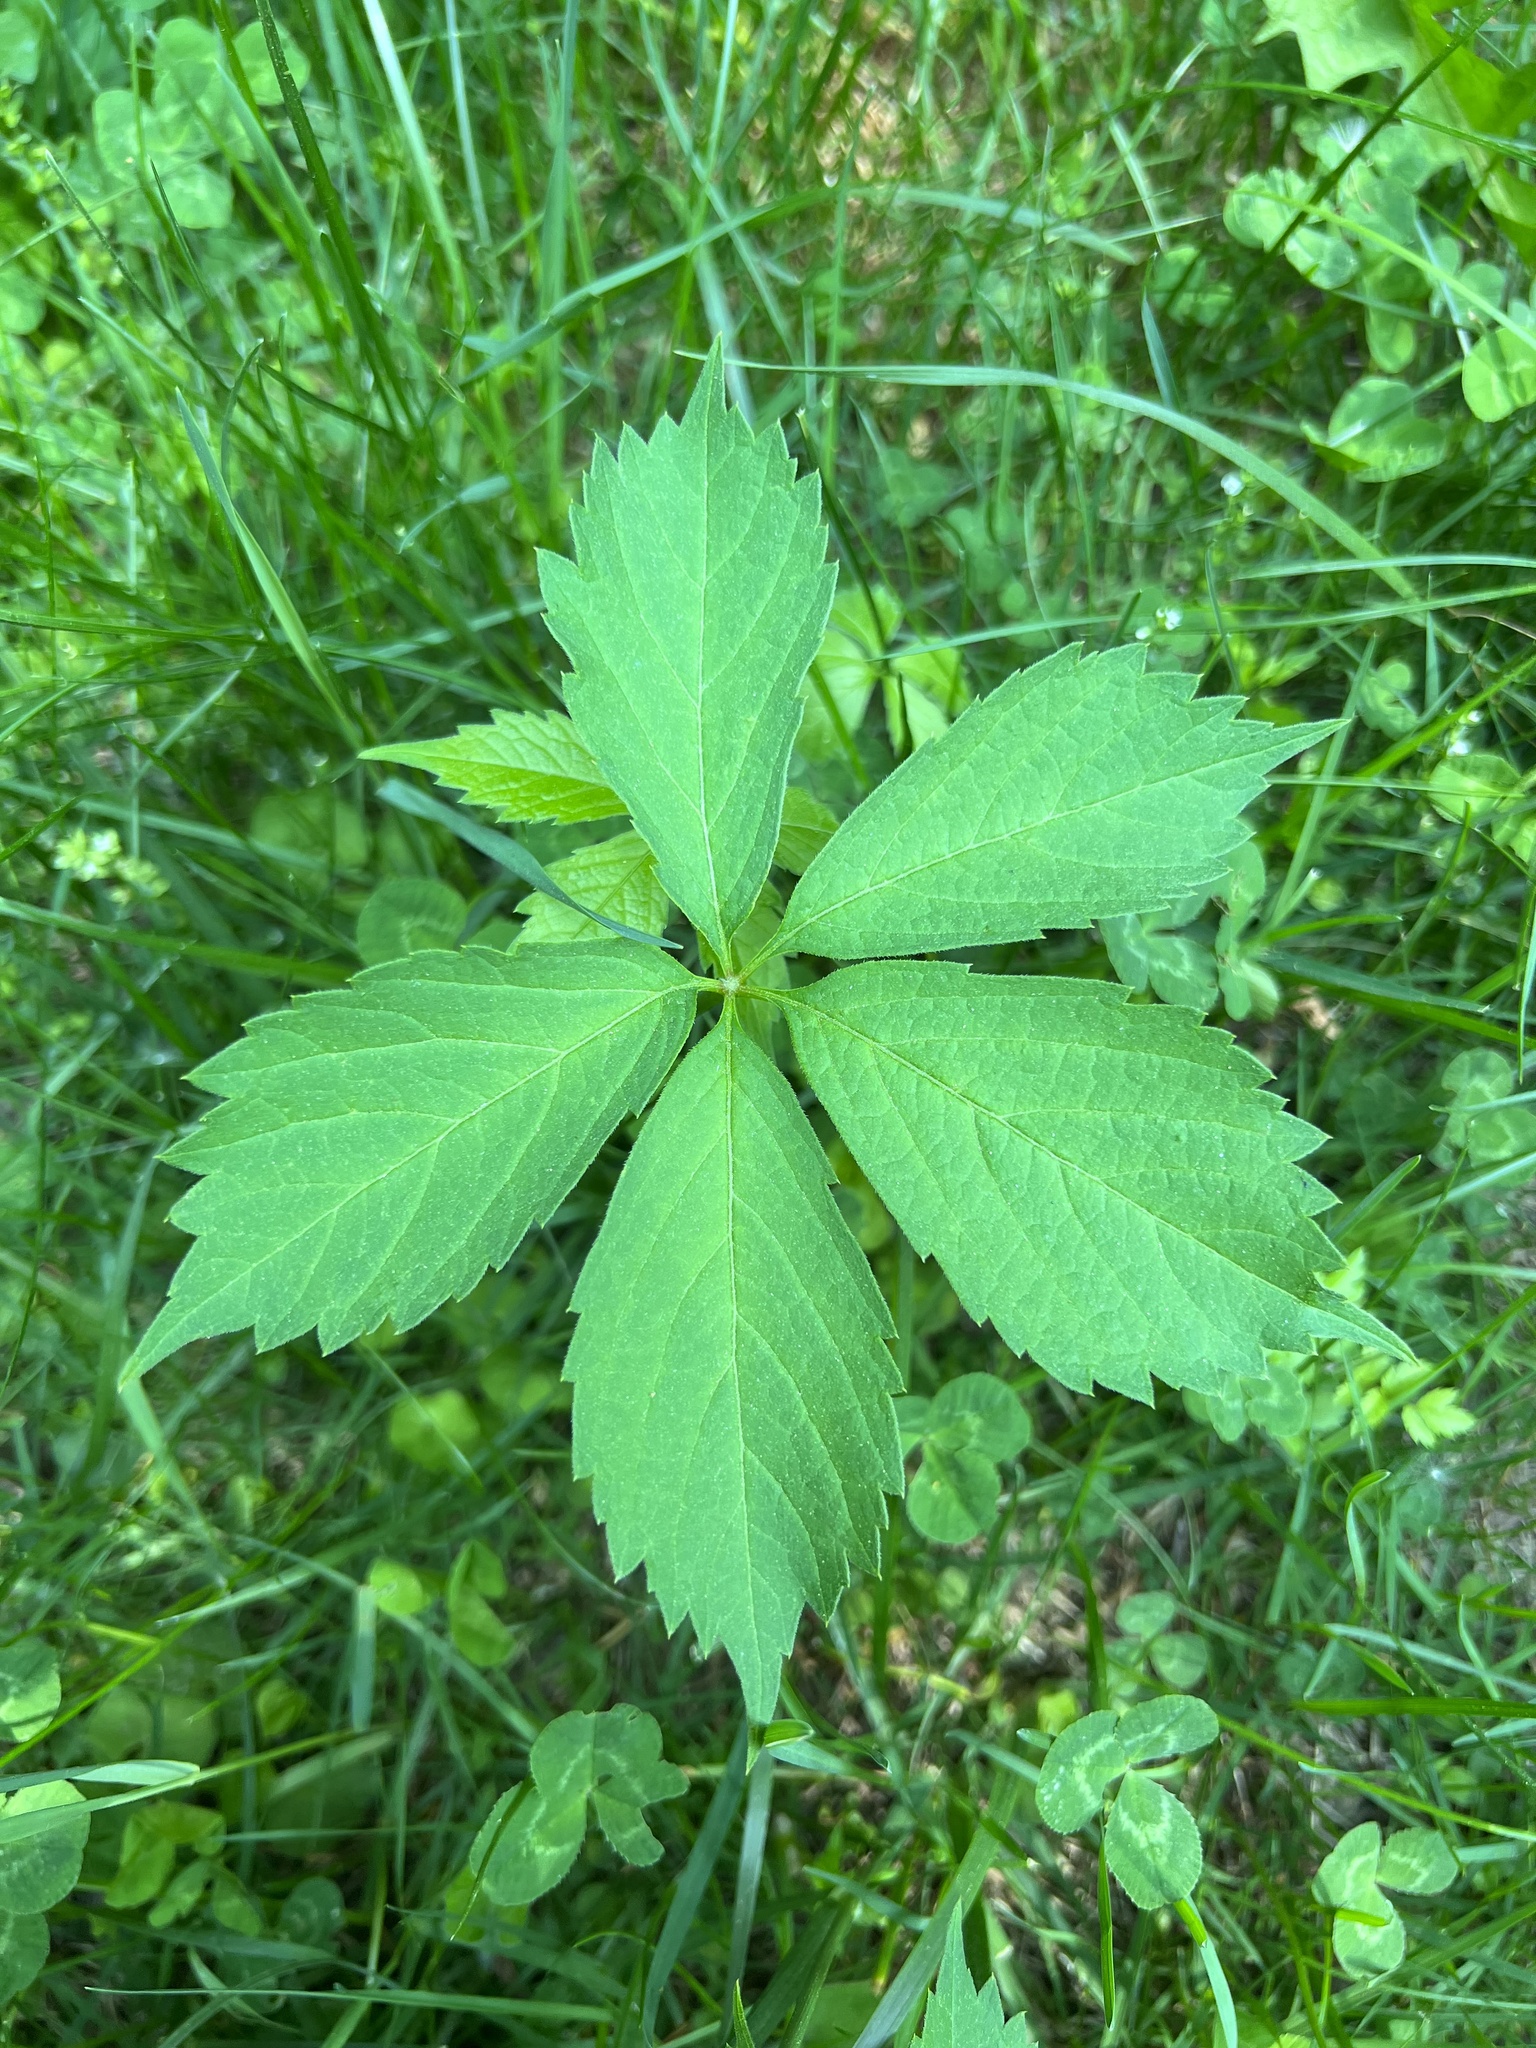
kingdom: Plantae
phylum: Tracheophyta
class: Magnoliopsida
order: Vitales
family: Vitaceae
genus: Parthenocissus
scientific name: Parthenocissus quinquefolia
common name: Virginia-creeper
